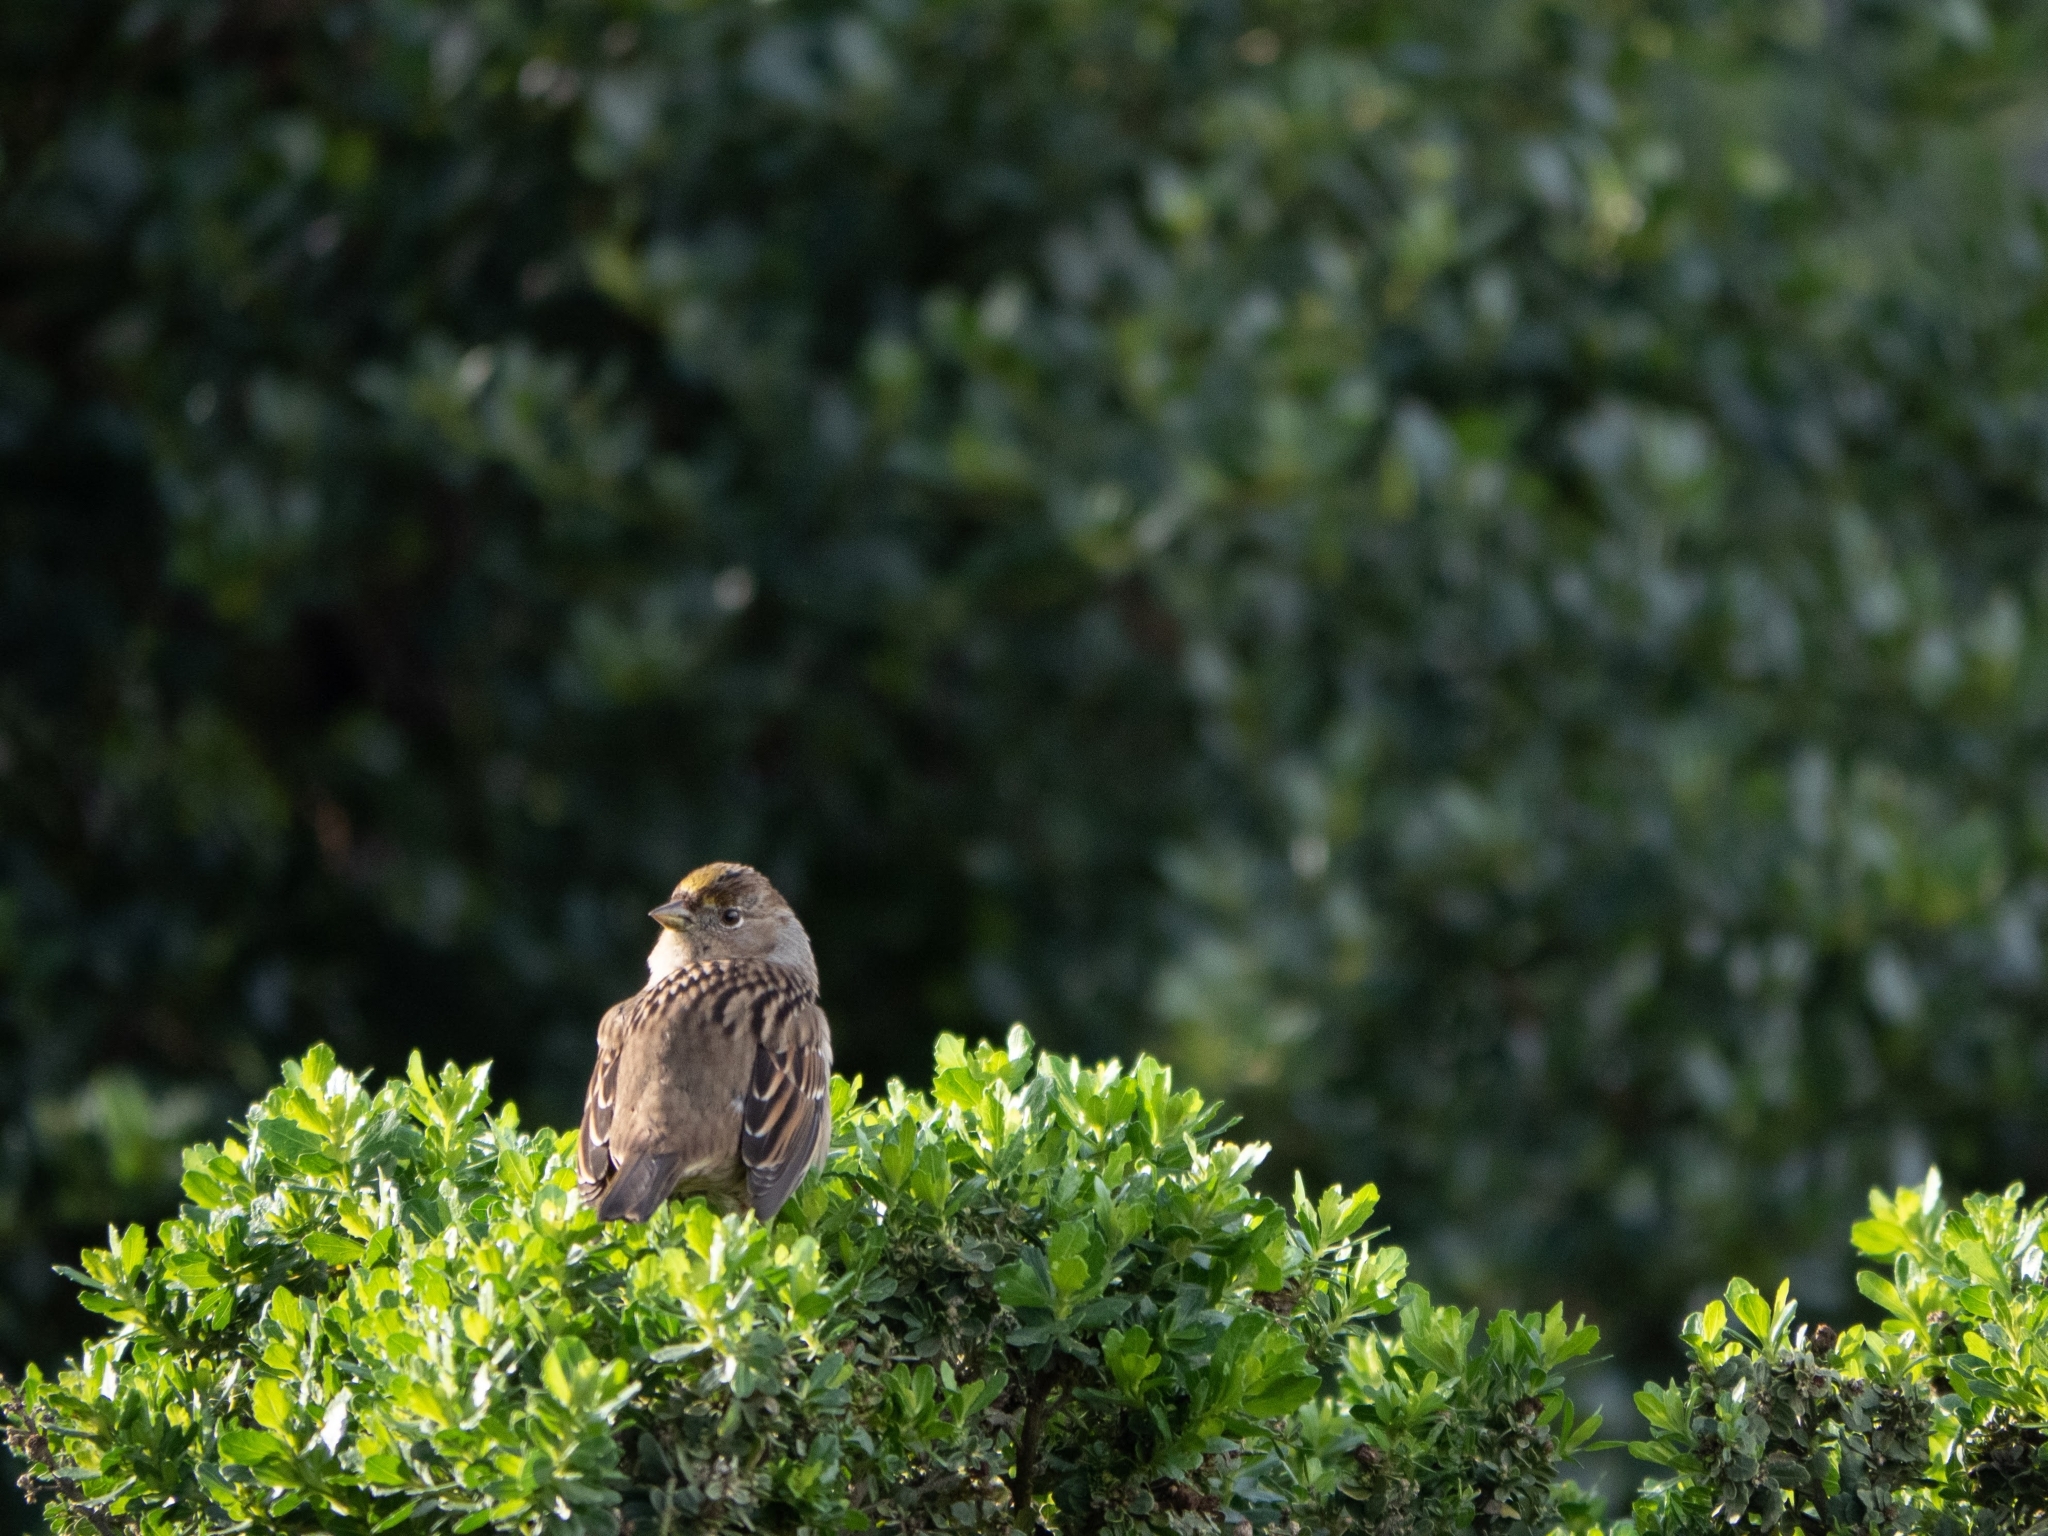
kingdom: Animalia
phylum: Chordata
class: Aves
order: Passeriformes
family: Passerellidae
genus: Zonotrichia
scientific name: Zonotrichia atricapilla
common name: Golden-crowned sparrow
